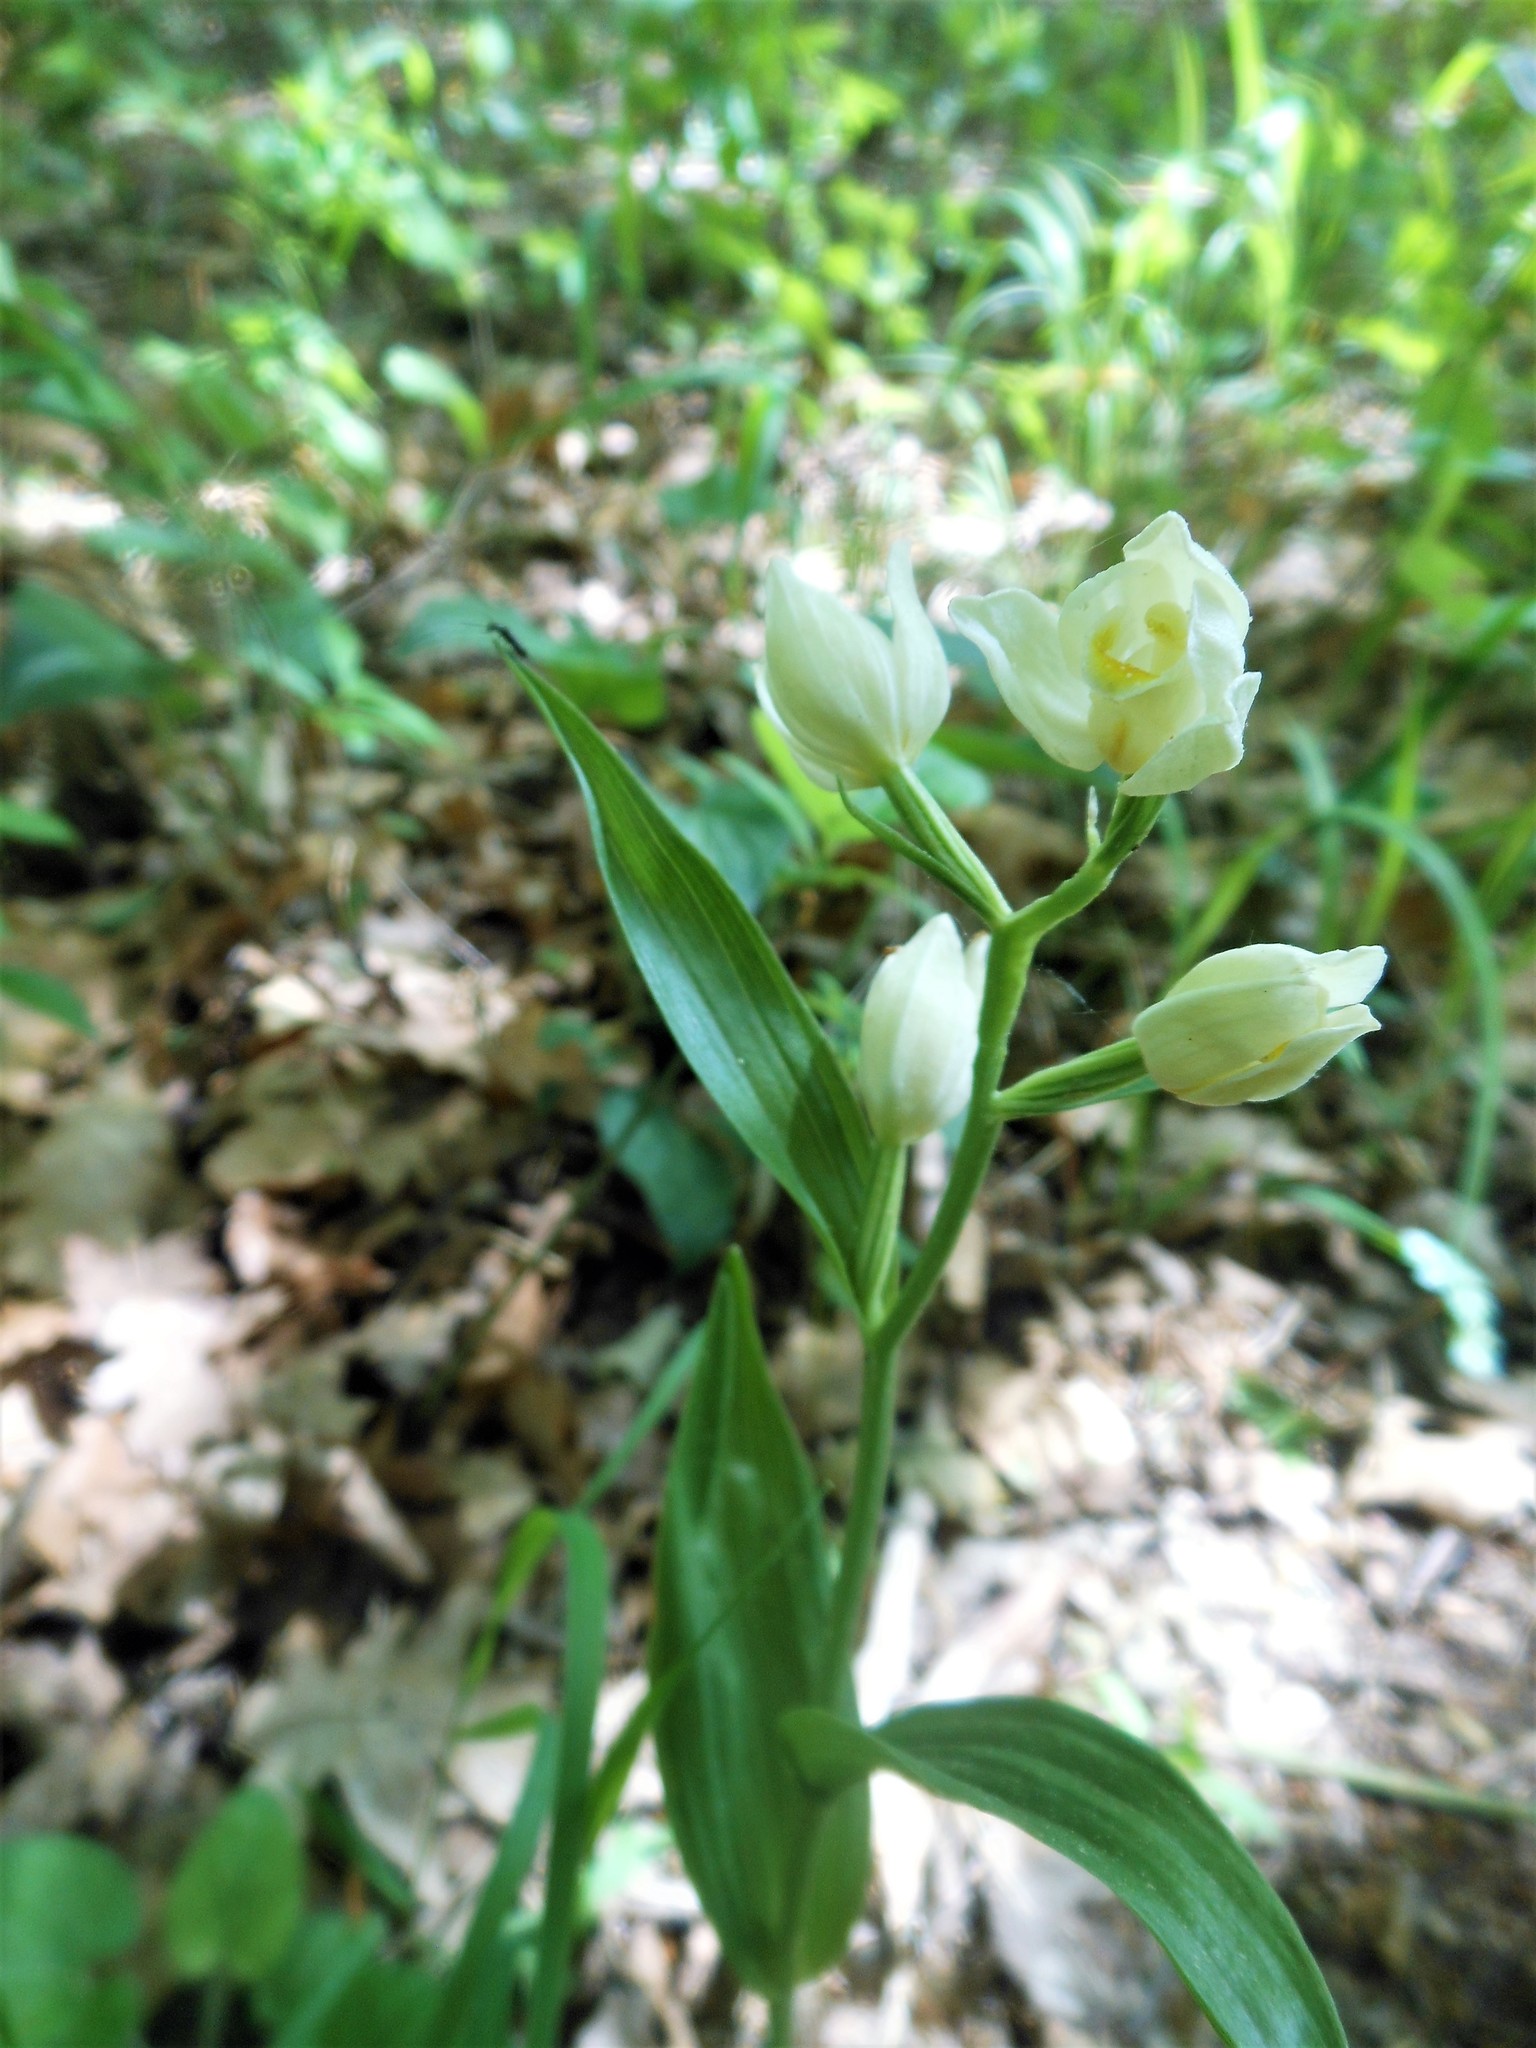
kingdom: Plantae
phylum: Tracheophyta
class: Liliopsida
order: Asparagales
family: Orchidaceae
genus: Cephalanthera
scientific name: Cephalanthera damasonium
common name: White helleborine
